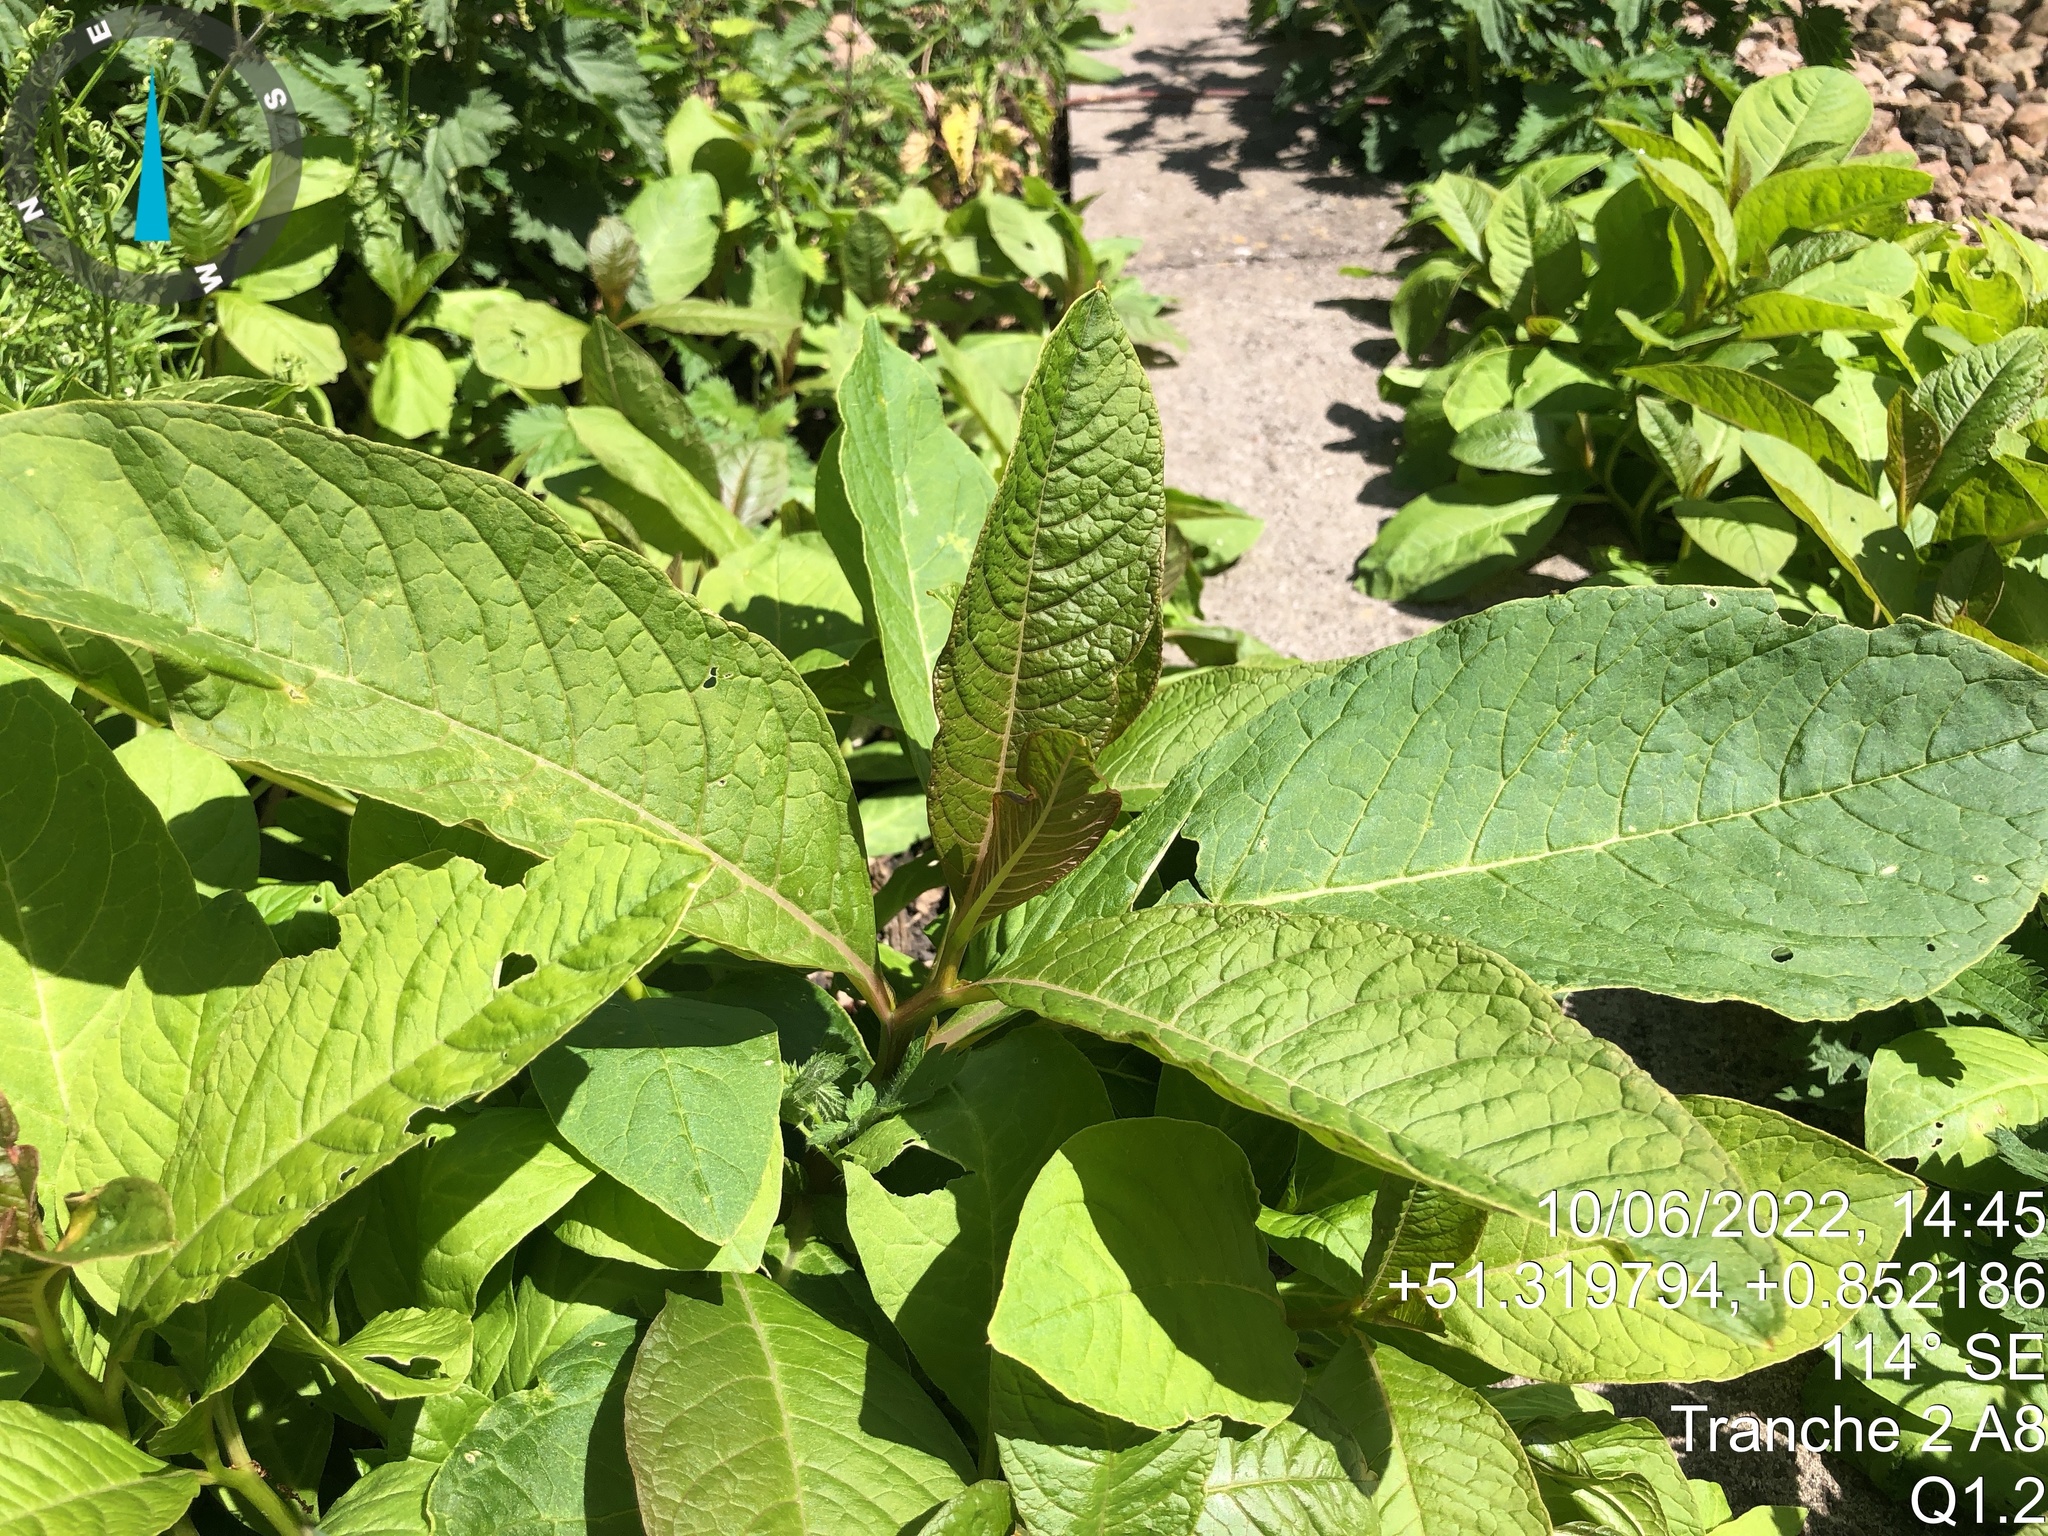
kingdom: Plantae
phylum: Tracheophyta
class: Magnoliopsida
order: Caryophyllales
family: Phytolaccaceae
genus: Phytolacca
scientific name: Phytolacca
